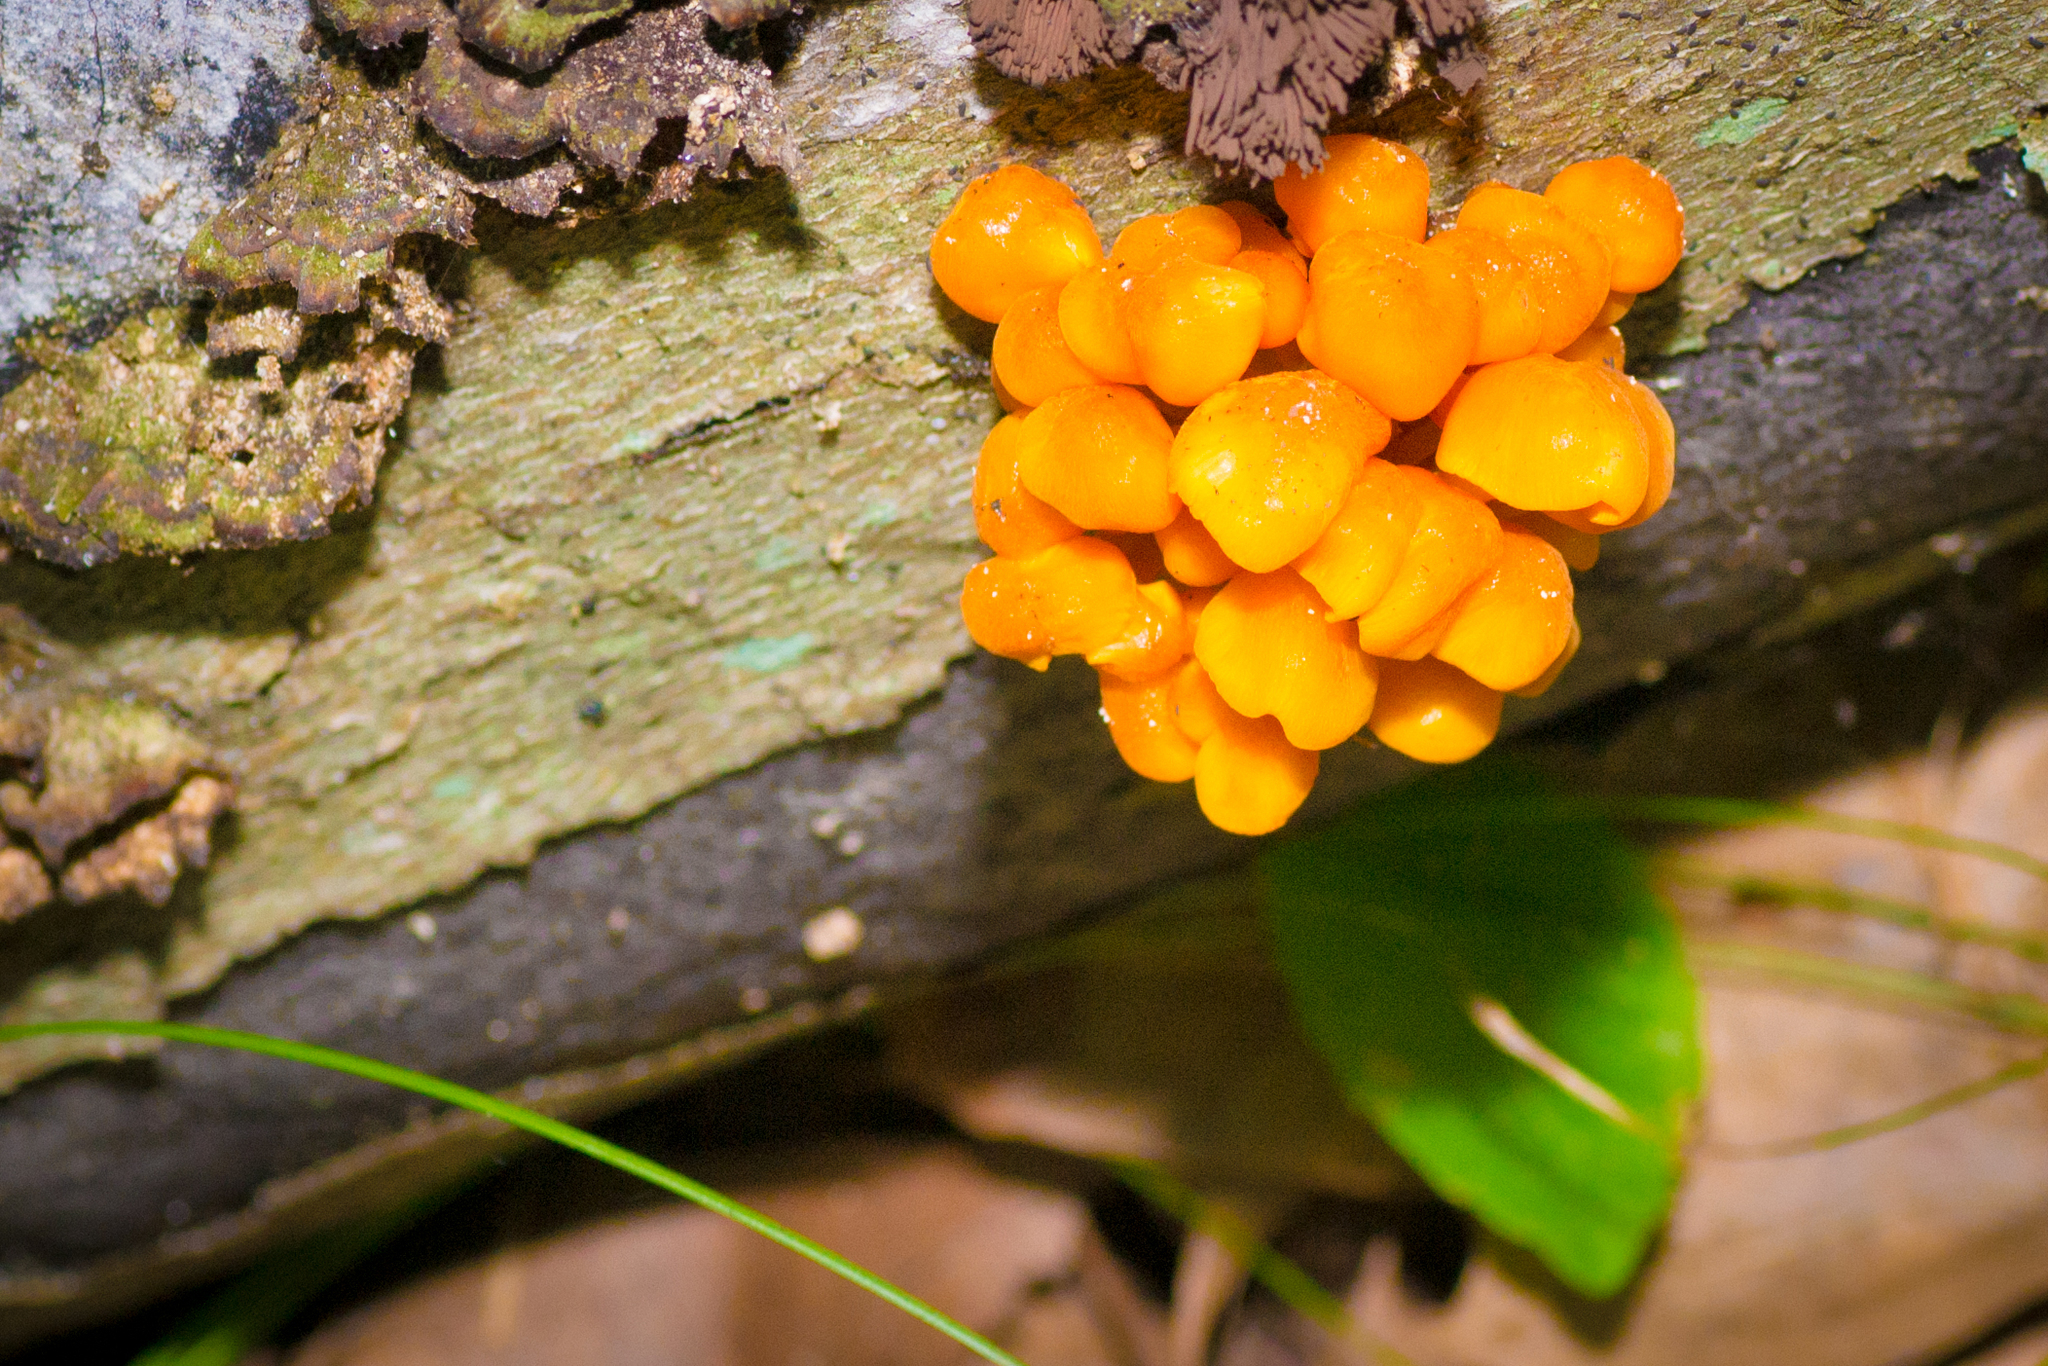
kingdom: Fungi
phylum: Basidiomycota
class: Agaricomycetes
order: Agaricales
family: Mycenaceae
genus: Mycena
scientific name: Mycena leaiana
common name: Orange mycena
